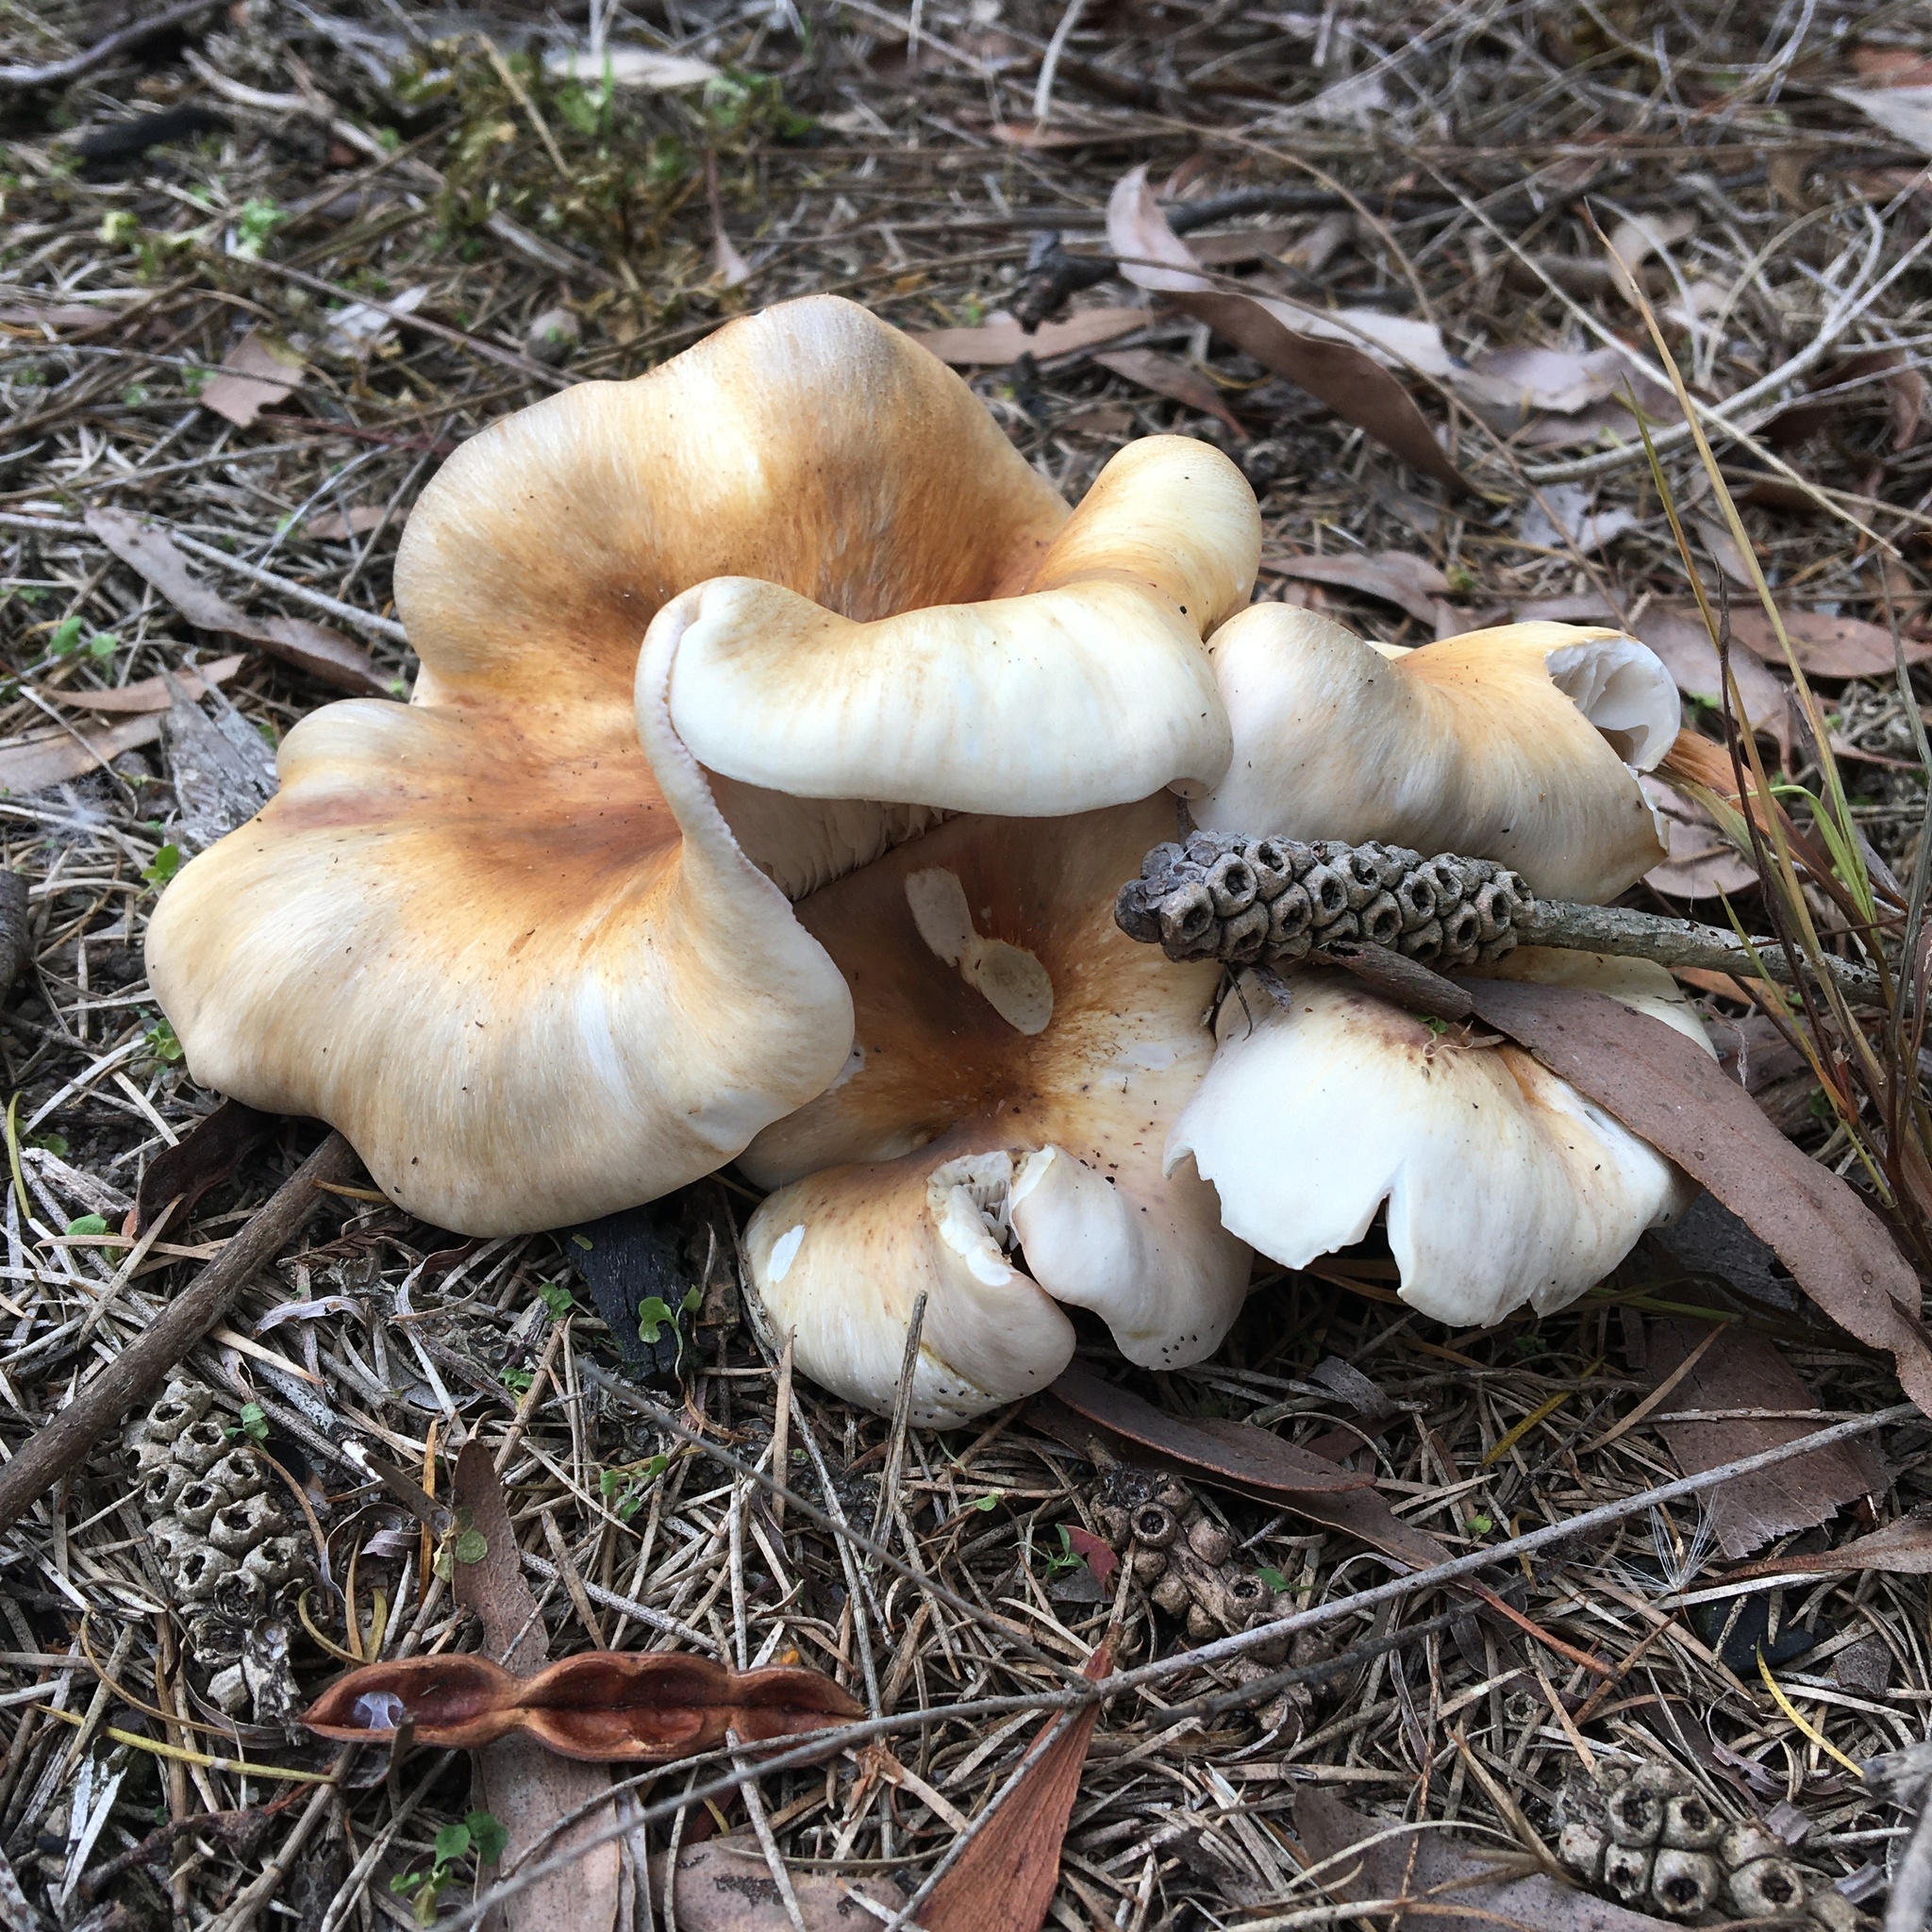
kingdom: Fungi
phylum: Basidiomycota
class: Agaricomycetes
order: Agaricales
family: Omphalotaceae
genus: Omphalotus
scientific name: Omphalotus nidiformis
